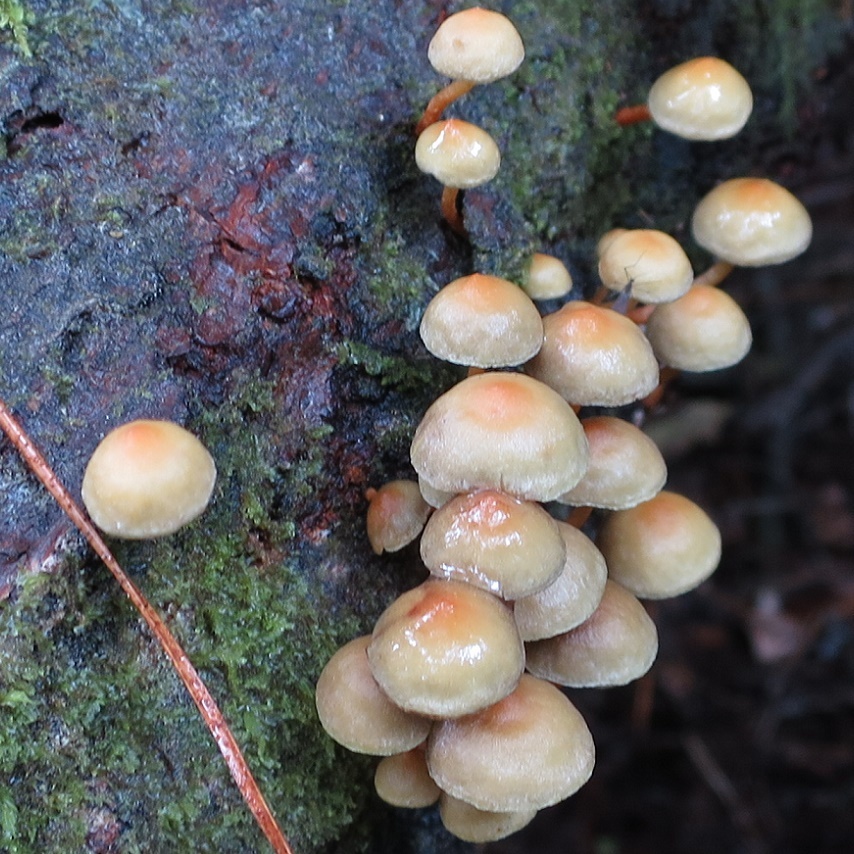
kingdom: Fungi
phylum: Basidiomycota
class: Agaricomycetes
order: Agaricales
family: Strophariaceae
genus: Hypholoma
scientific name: Hypholoma acutum
